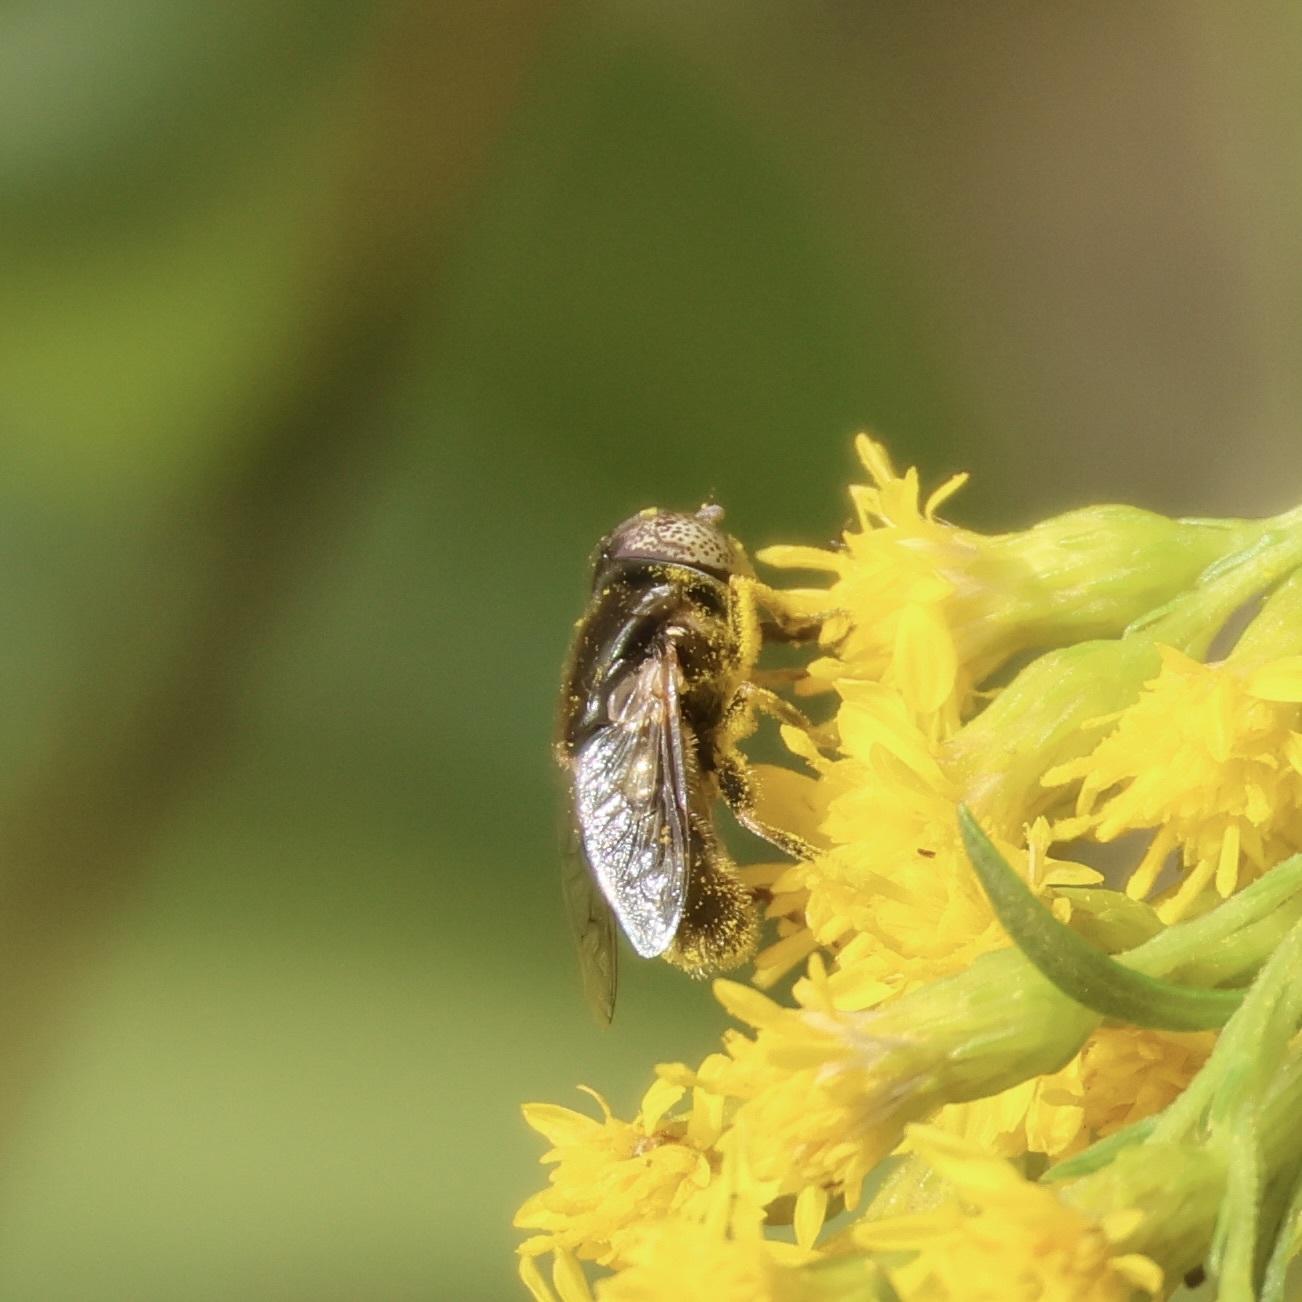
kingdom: Animalia
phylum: Arthropoda
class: Insecta
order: Diptera
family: Syrphidae
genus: Eristalinus
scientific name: Eristalinus aeneus
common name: Syrphid fly
